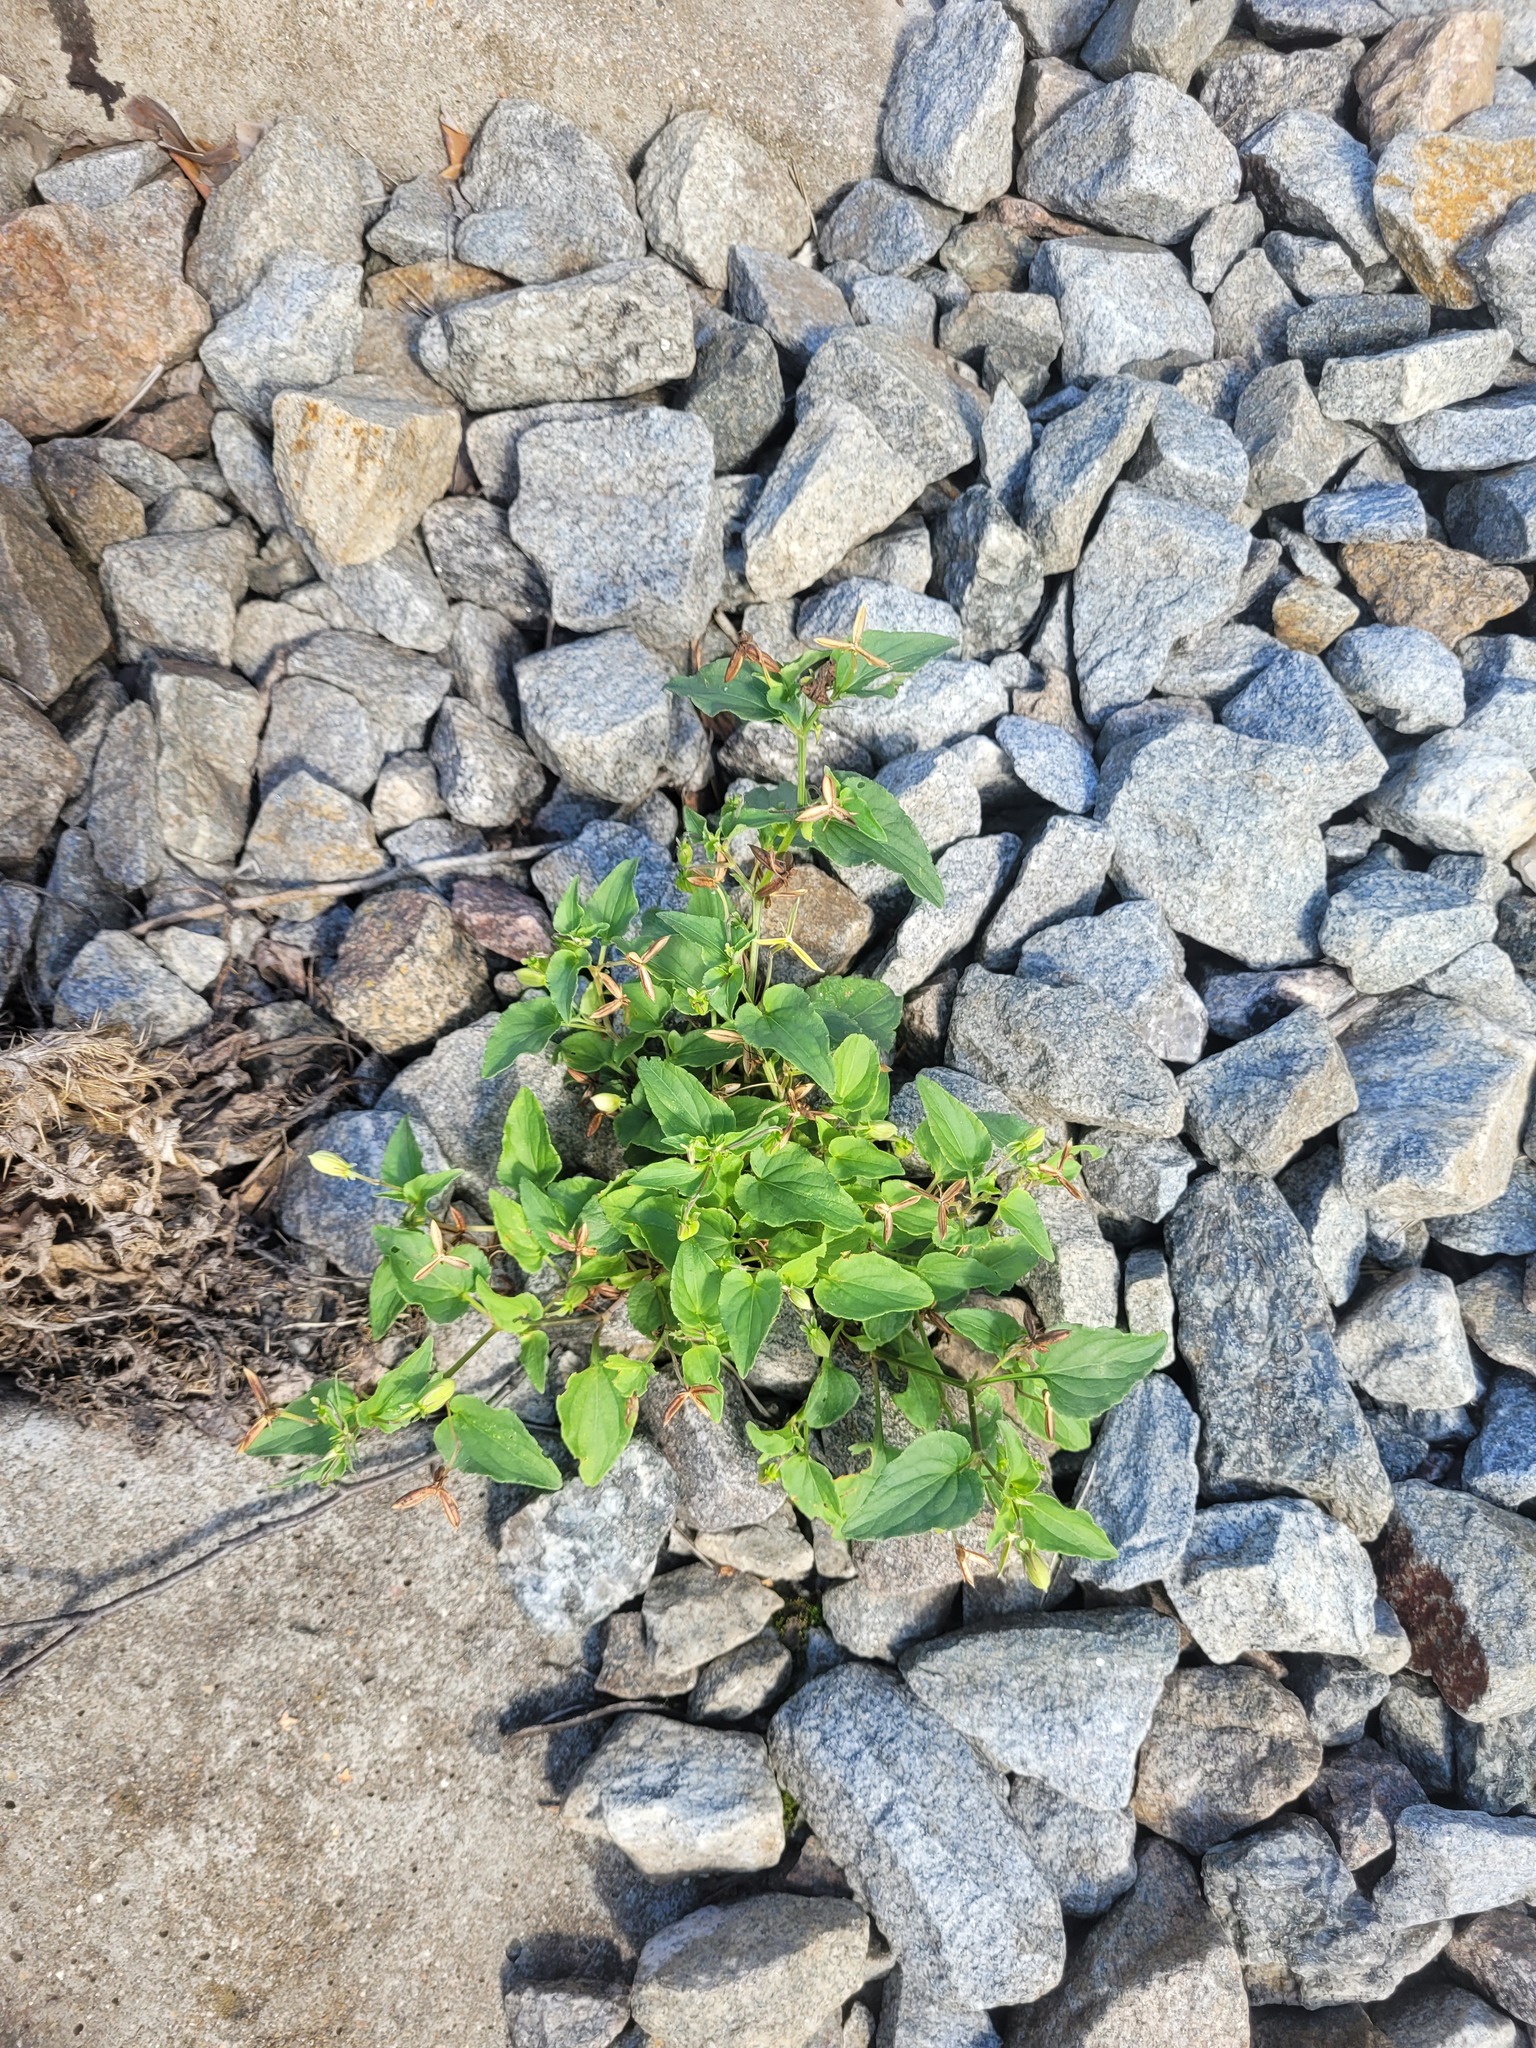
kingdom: Plantae
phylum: Tracheophyta
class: Magnoliopsida
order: Malpighiales
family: Violaceae
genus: Viola
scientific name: Viola canina
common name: Heath dog-violet
